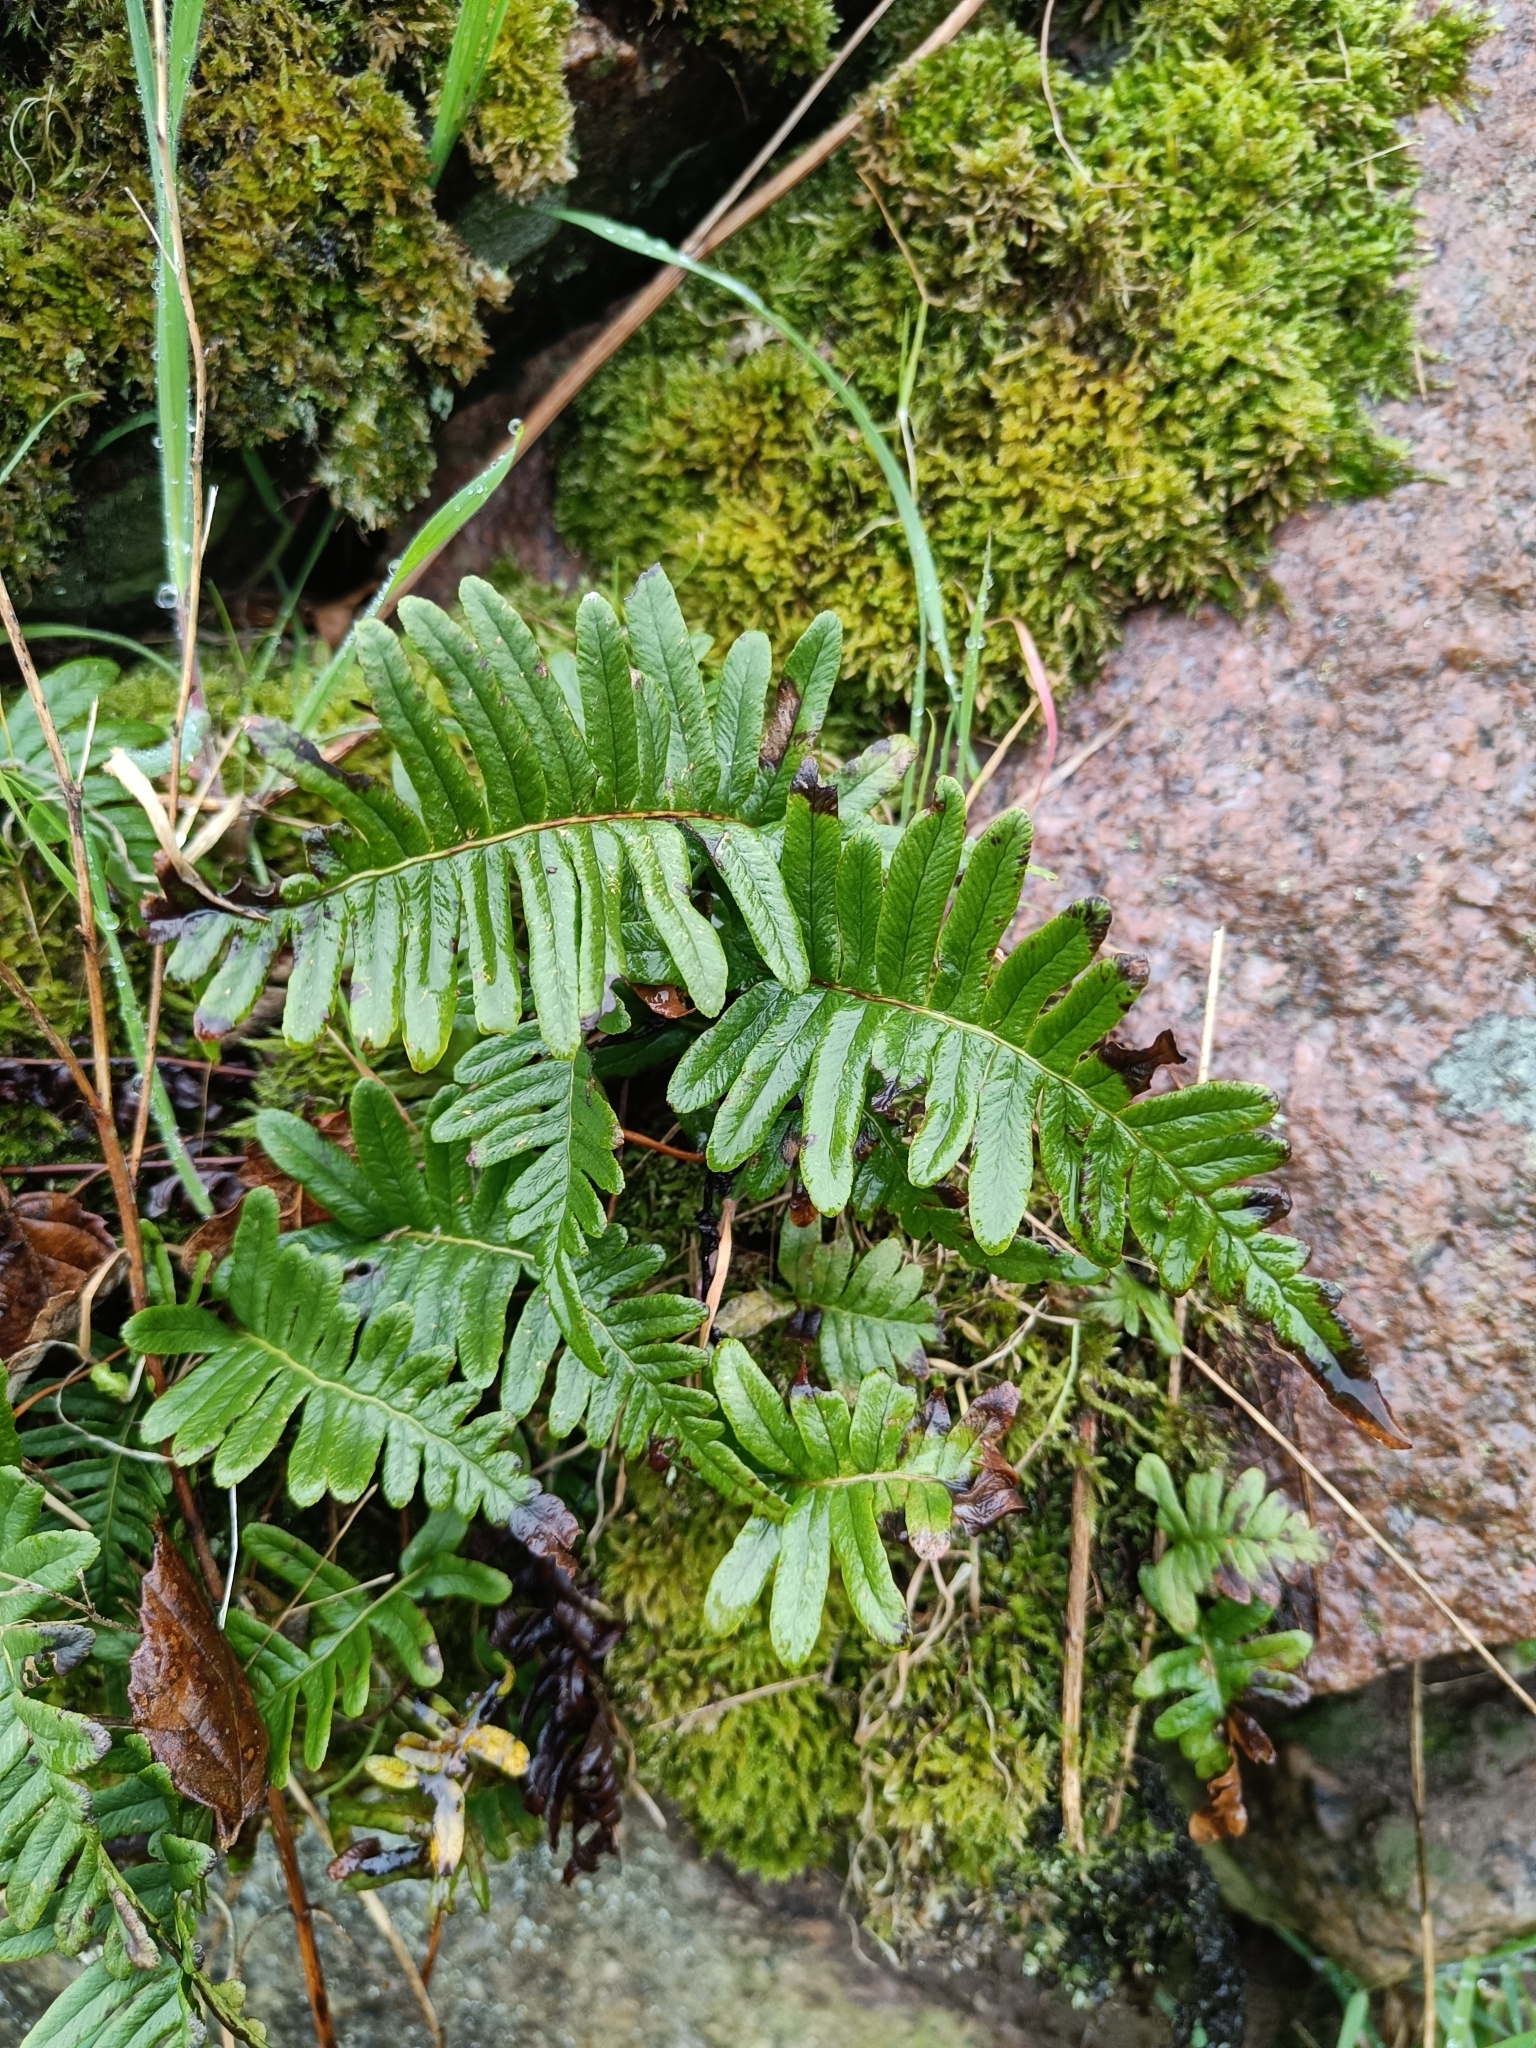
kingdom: Plantae
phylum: Tracheophyta
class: Polypodiopsida
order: Polypodiales
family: Polypodiaceae
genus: Polypodium
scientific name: Polypodium vulgare
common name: Common polypody
